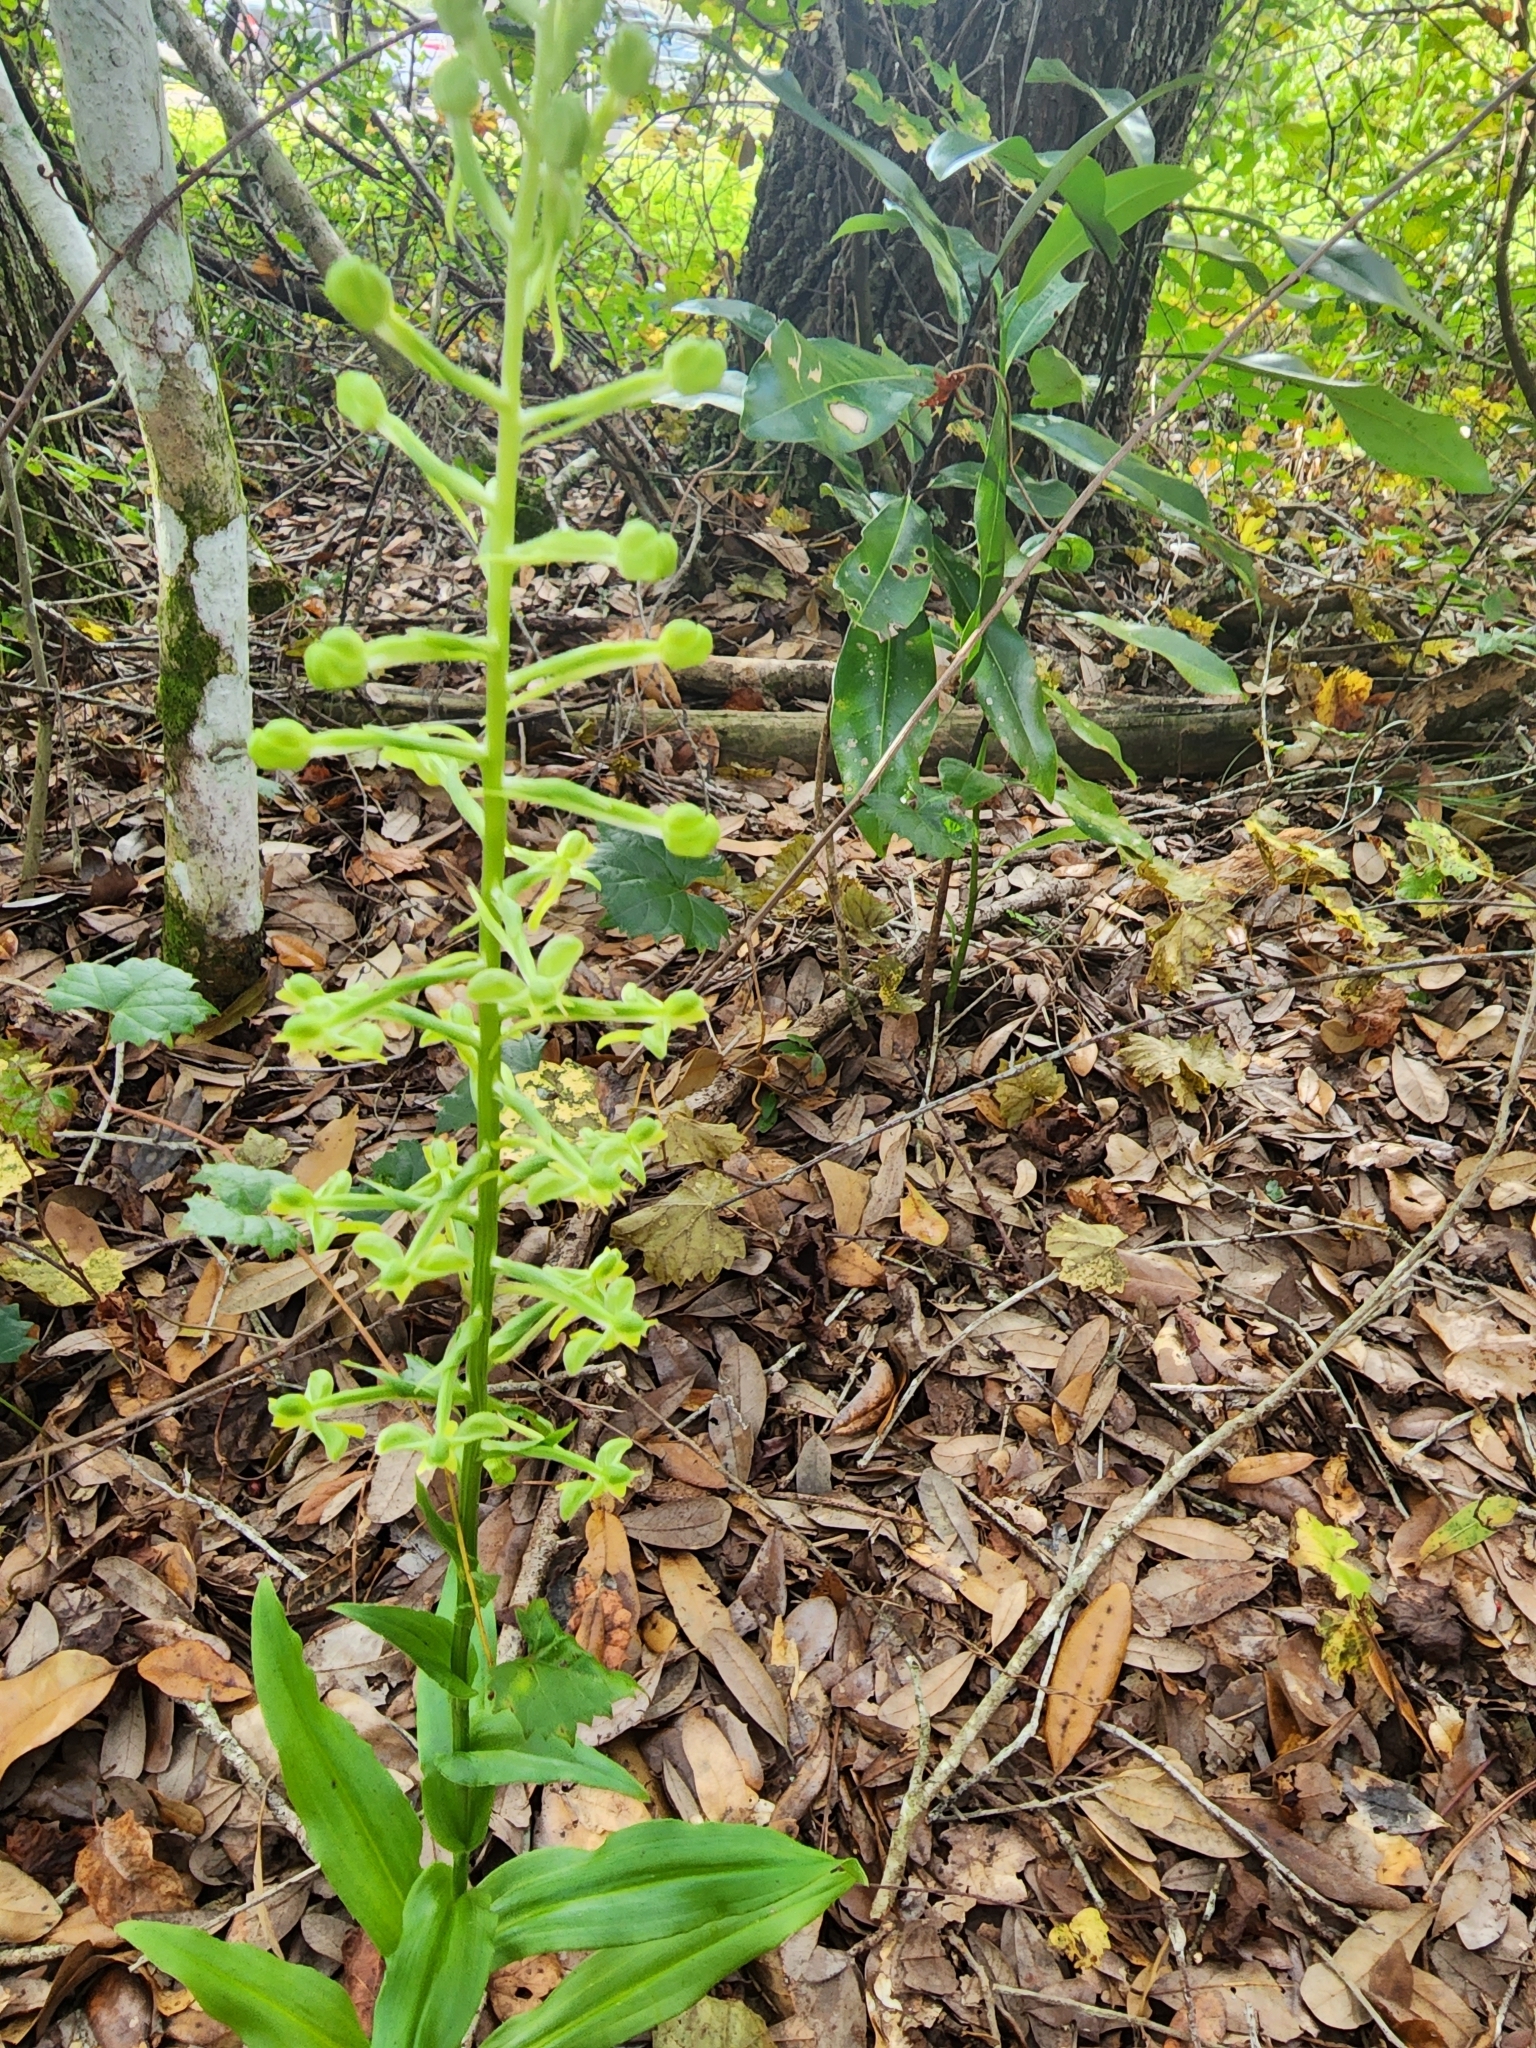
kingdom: Plantae
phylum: Tracheophyta
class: Liliopsida
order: Asparagales
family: Orchidaceae
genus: Habenaria
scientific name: Habenaria floribunda
